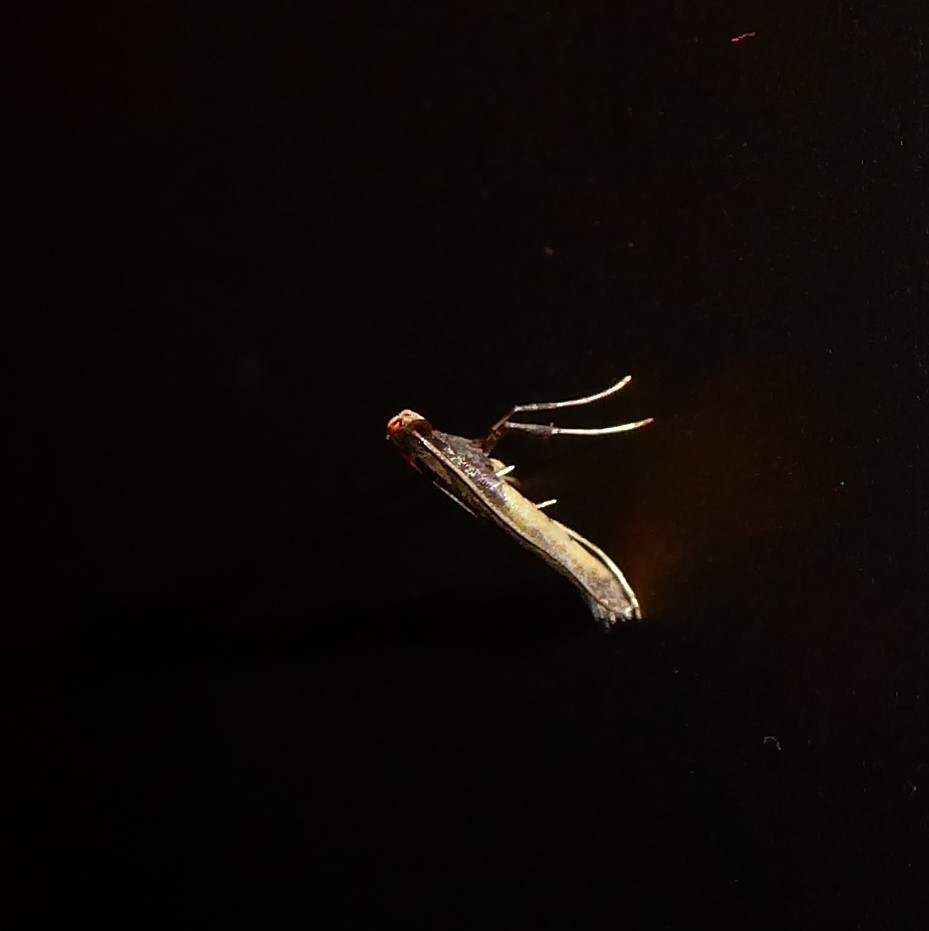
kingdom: Animalia
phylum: Arthropoda
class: Insecta
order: Lepidoptera
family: Gracillariidae
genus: Caloptilia
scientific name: Caloptilia azaleella
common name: Azalea leafminer
